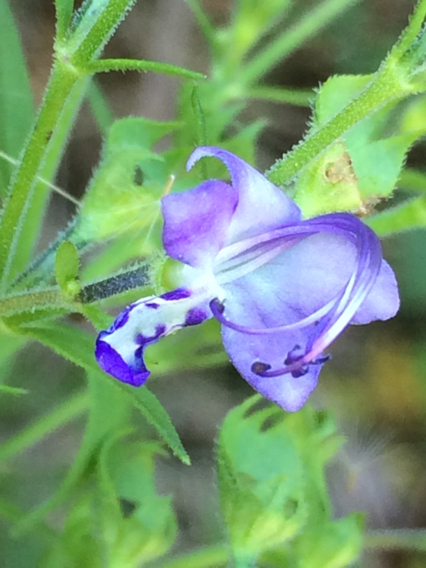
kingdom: Plantae
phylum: Tracheophyta
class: Magnoliopsida
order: Lamiales
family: Lamiaceae
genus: Trichostema
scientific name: Trichostema dichotomum
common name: Bastard pennyroyal
